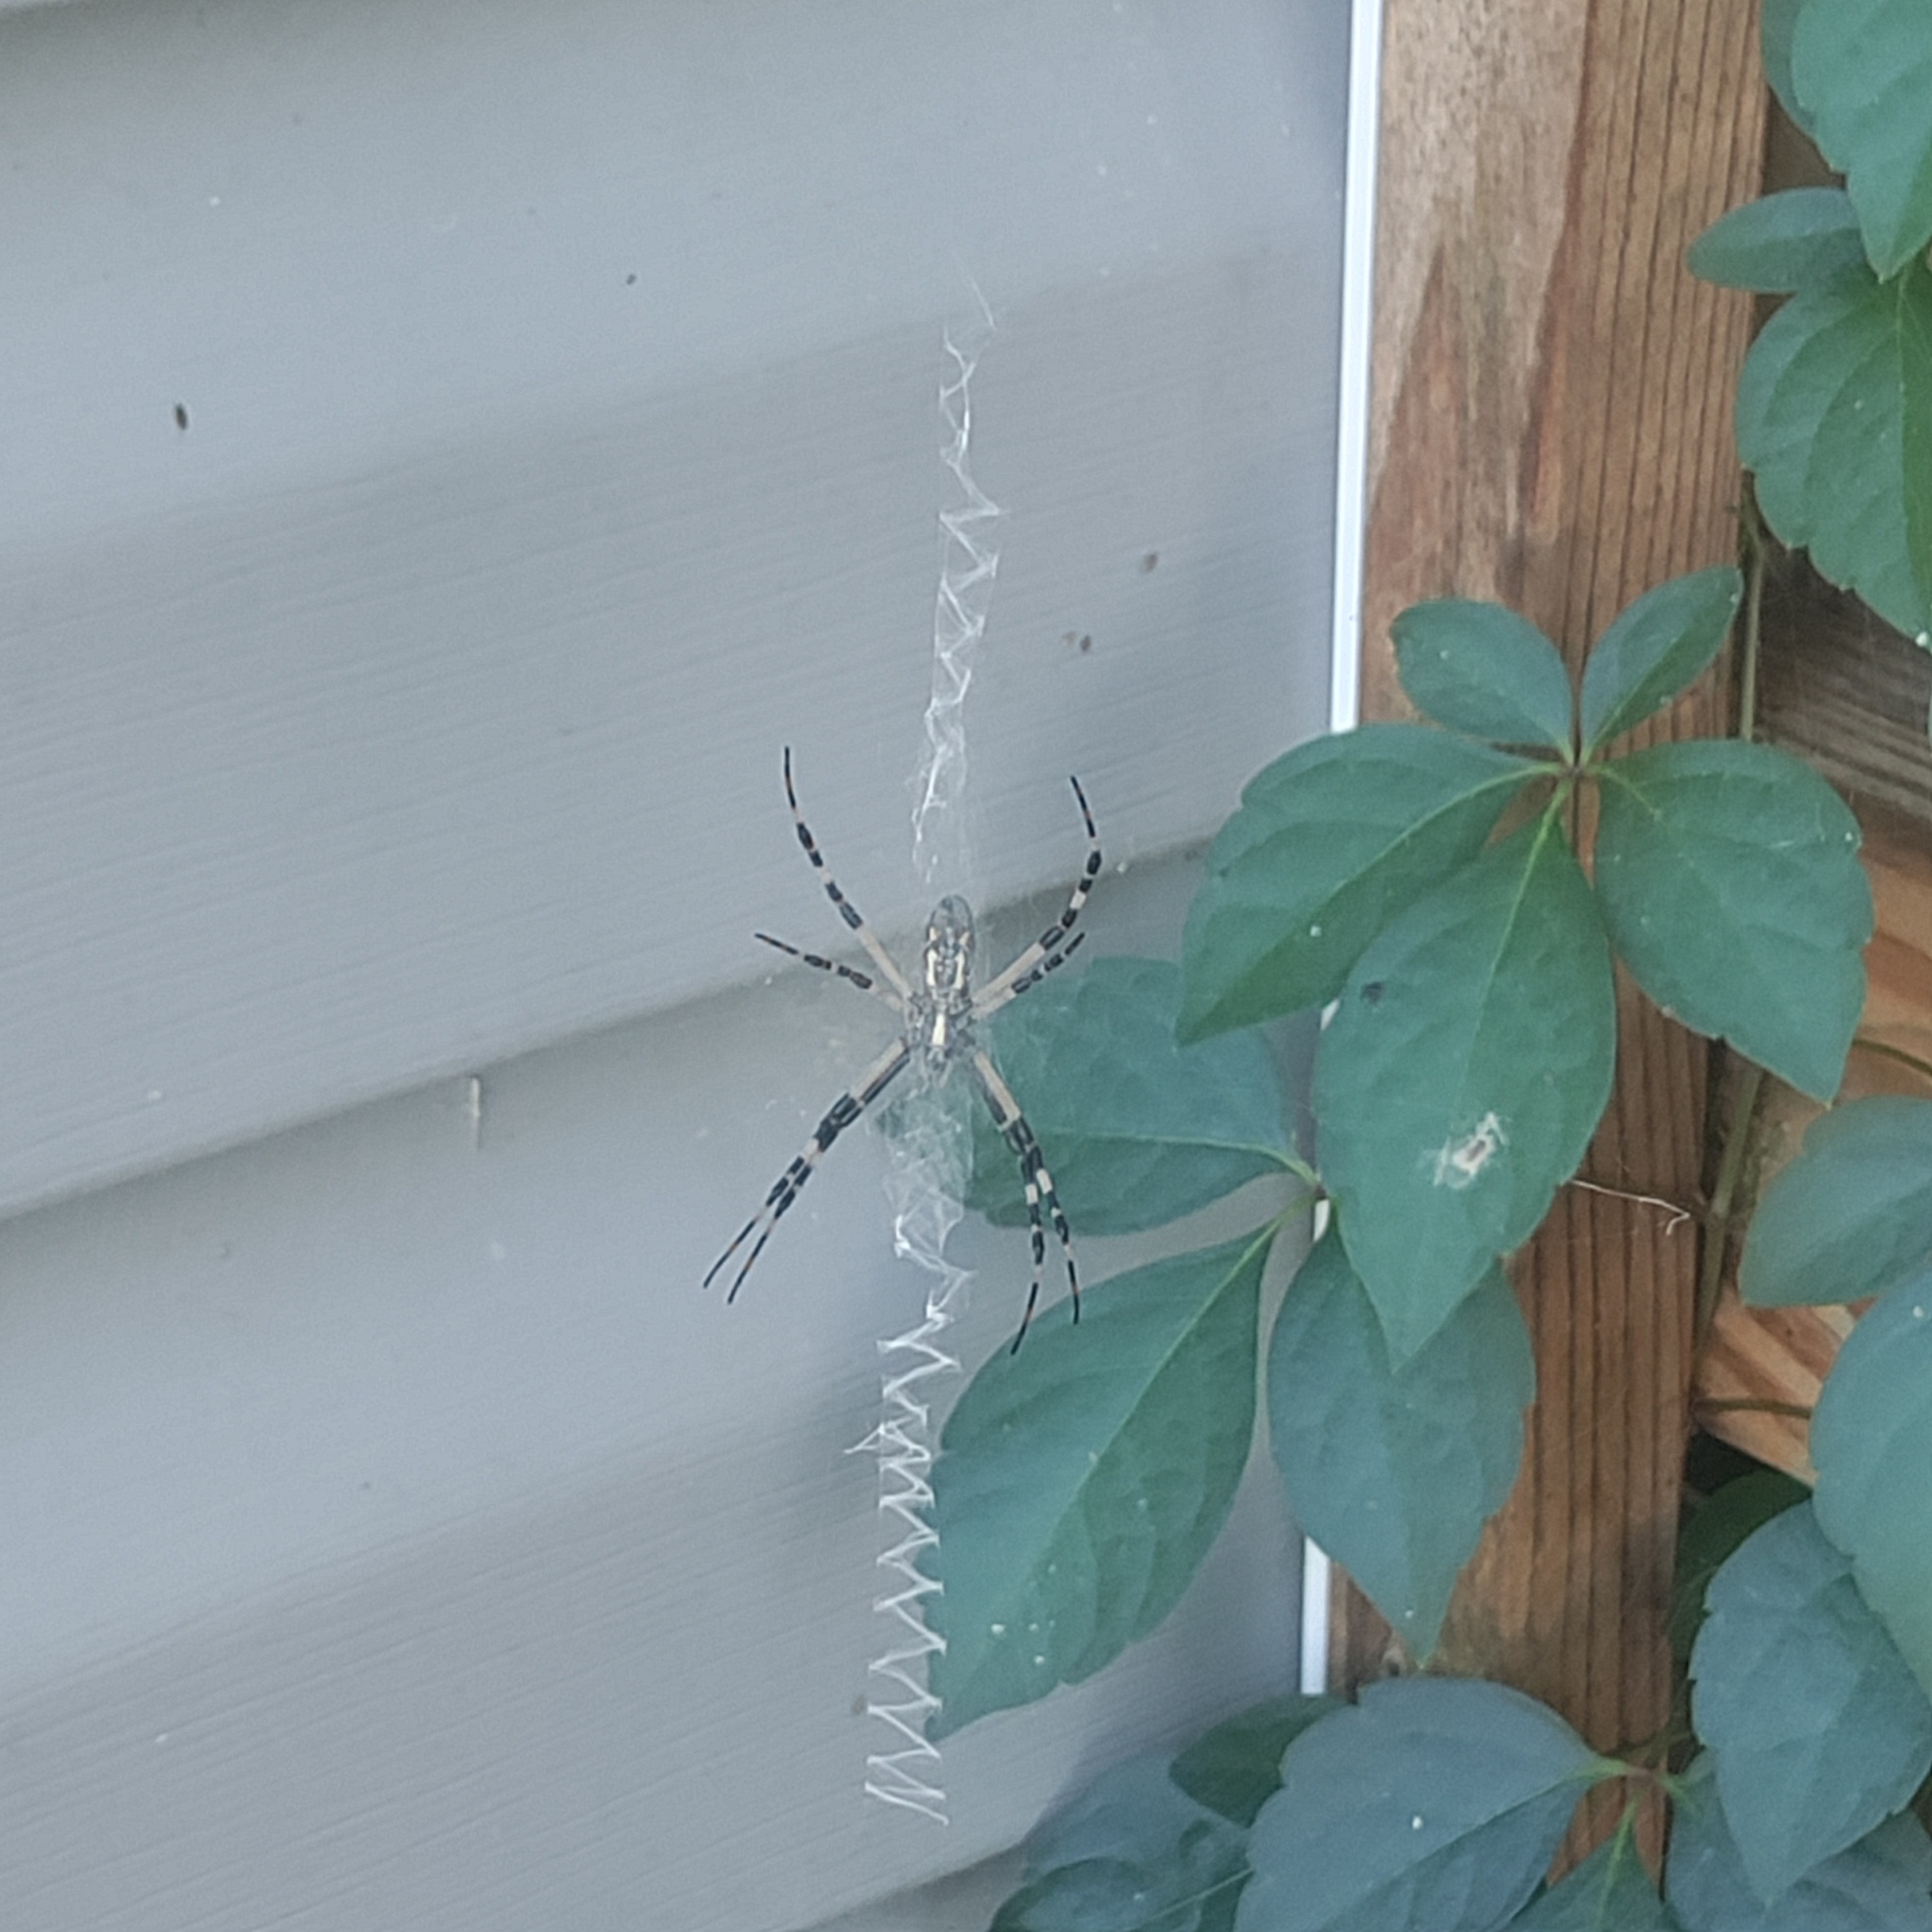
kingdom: Animalia
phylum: Arthropoda
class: Arachnida
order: Araneae
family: Araneidae
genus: Argiope
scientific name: Argiope aurantia
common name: Orb weavers
